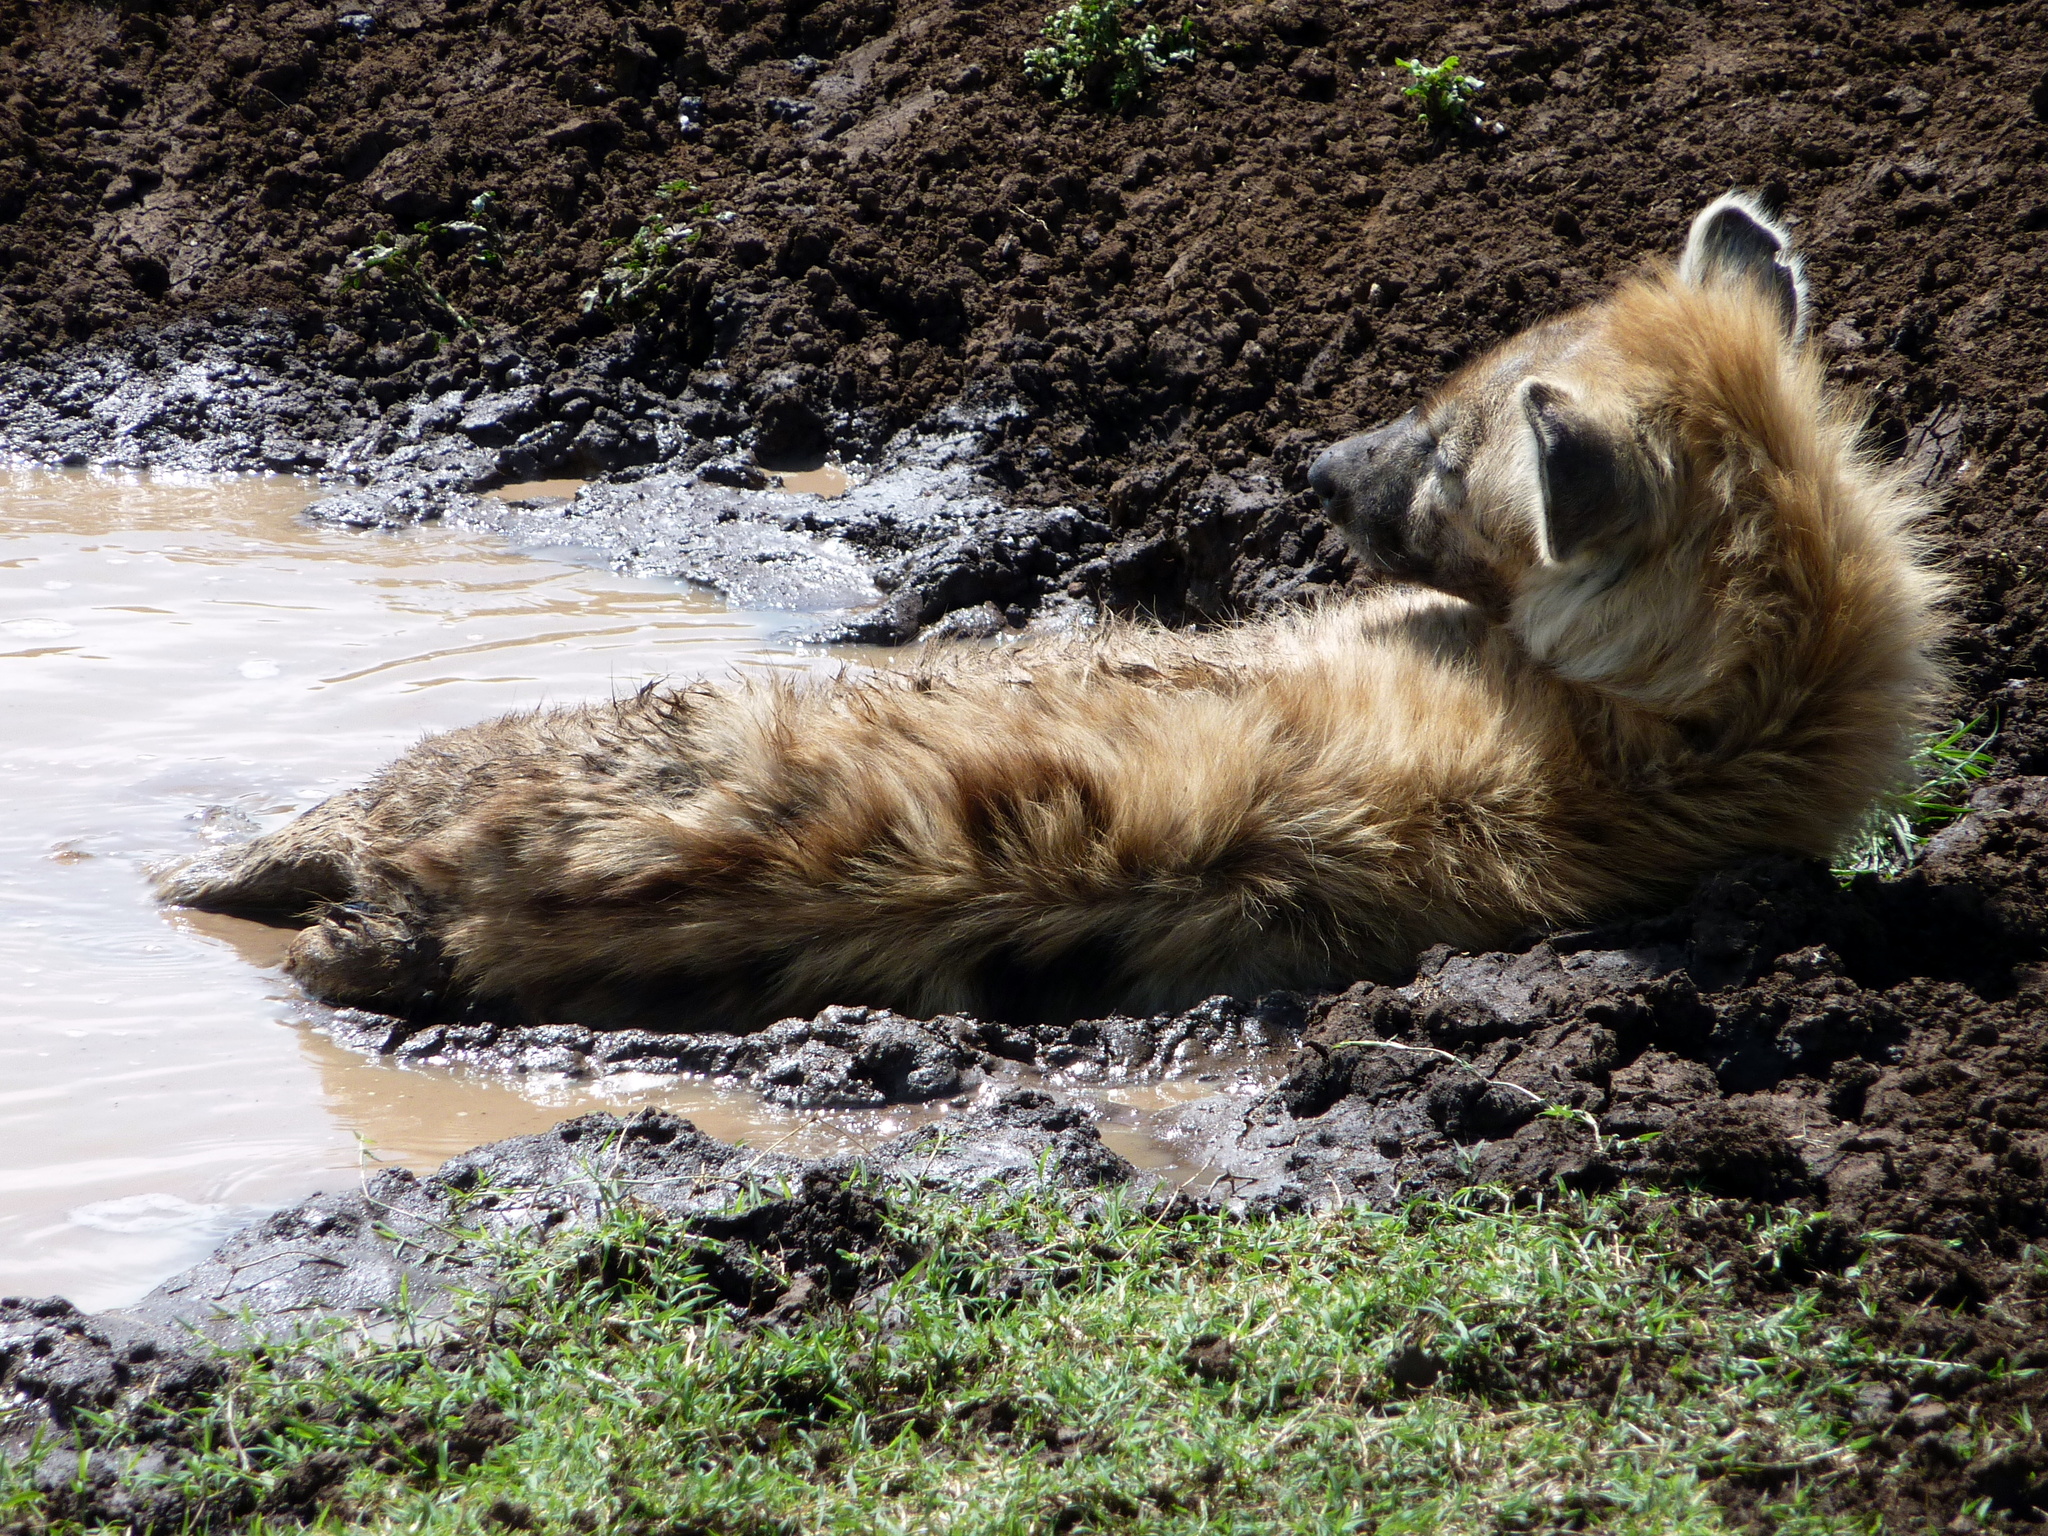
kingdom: Animalia
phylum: Chordata
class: Mammalia
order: Carnivora
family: Hyaenidae
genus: Crocuta
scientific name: Crocuta crocuta
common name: Spotted hyaena
